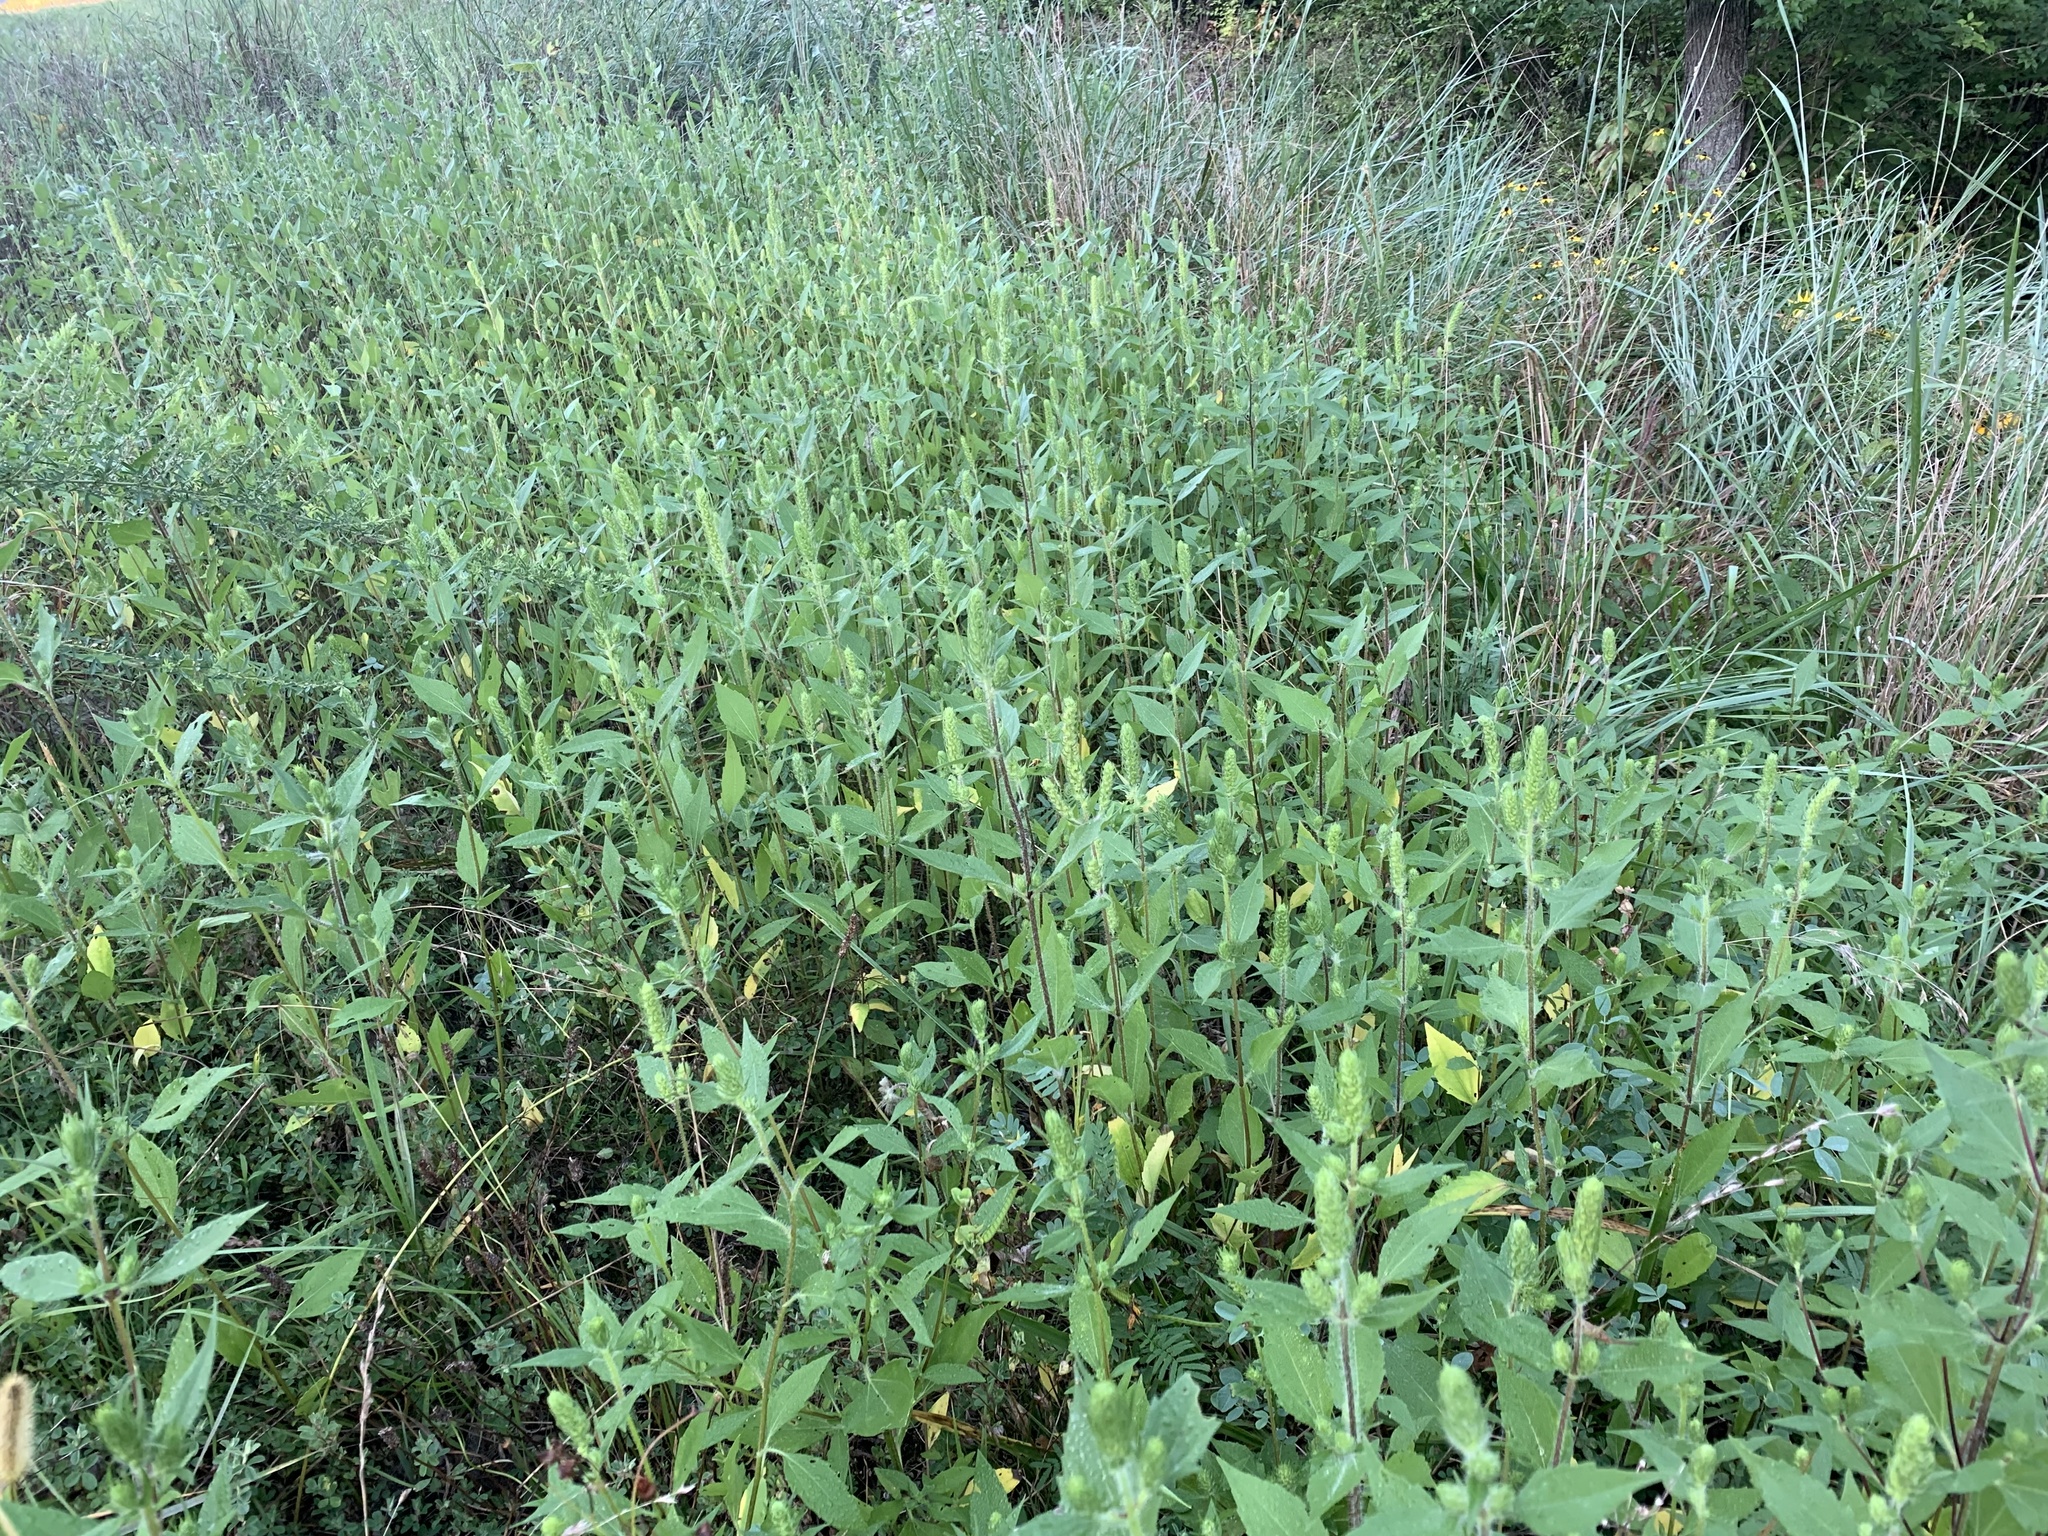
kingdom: Plantae
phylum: Tracheophyta
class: Magnoliopsida
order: Asterales
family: Asteraceae
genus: Iva
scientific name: Iva annua
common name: Marsh-elder
